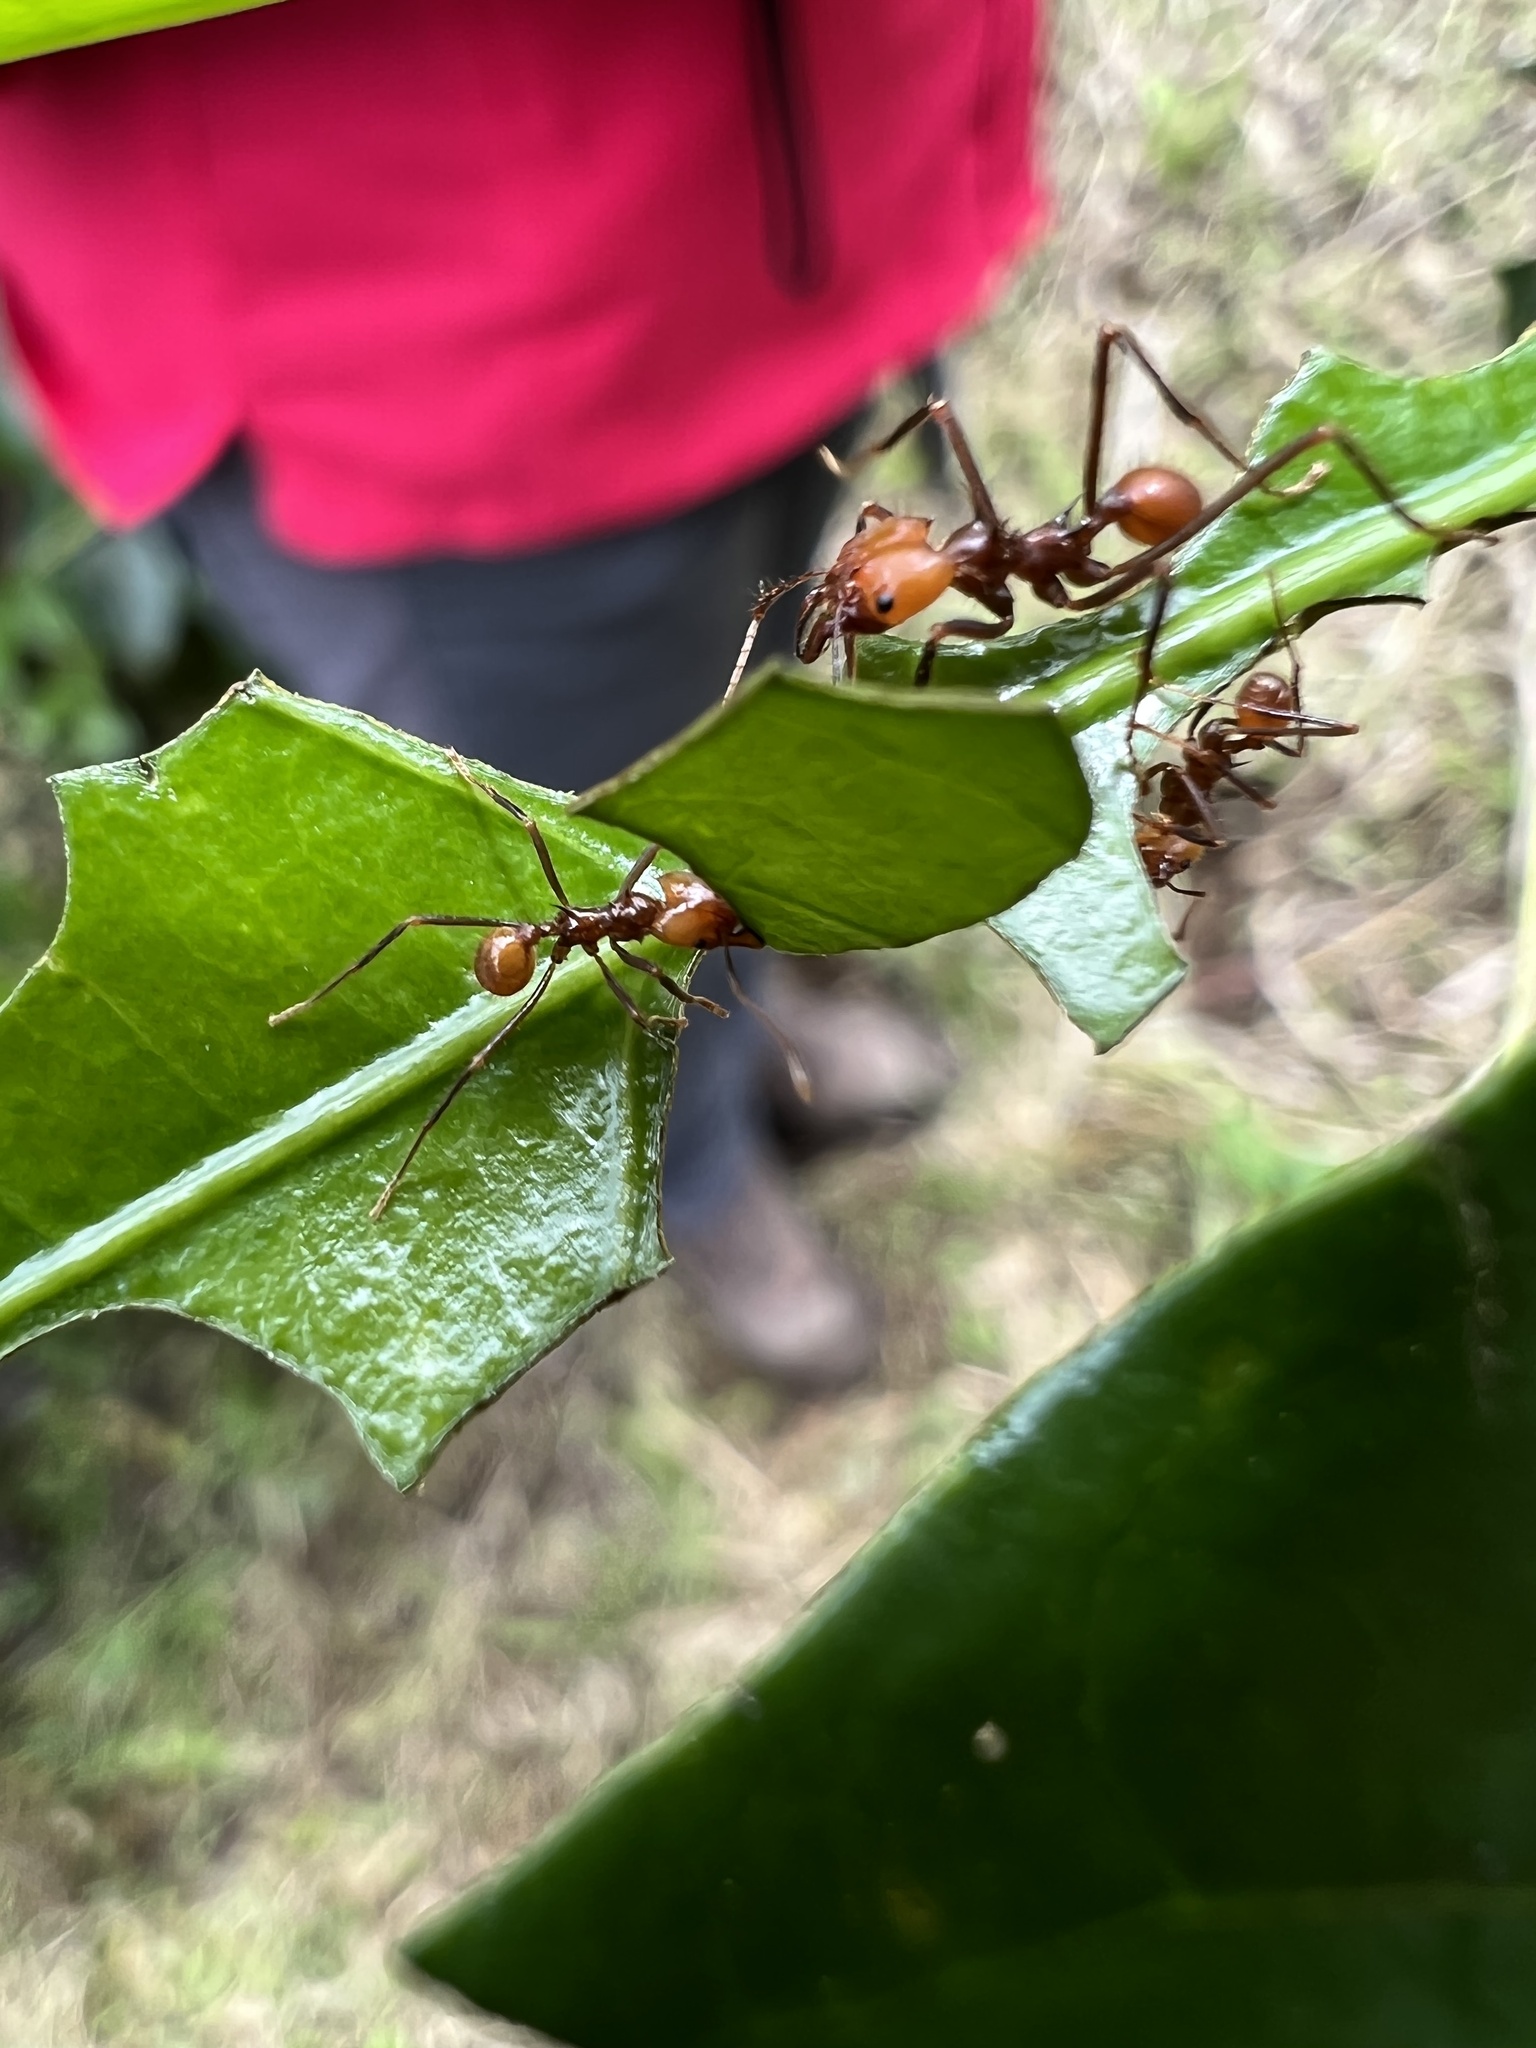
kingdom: Animalia
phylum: Arthropoda
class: Insecta
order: Hymenoptera
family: Formicidae
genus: Atta
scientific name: Atta cephalotes
